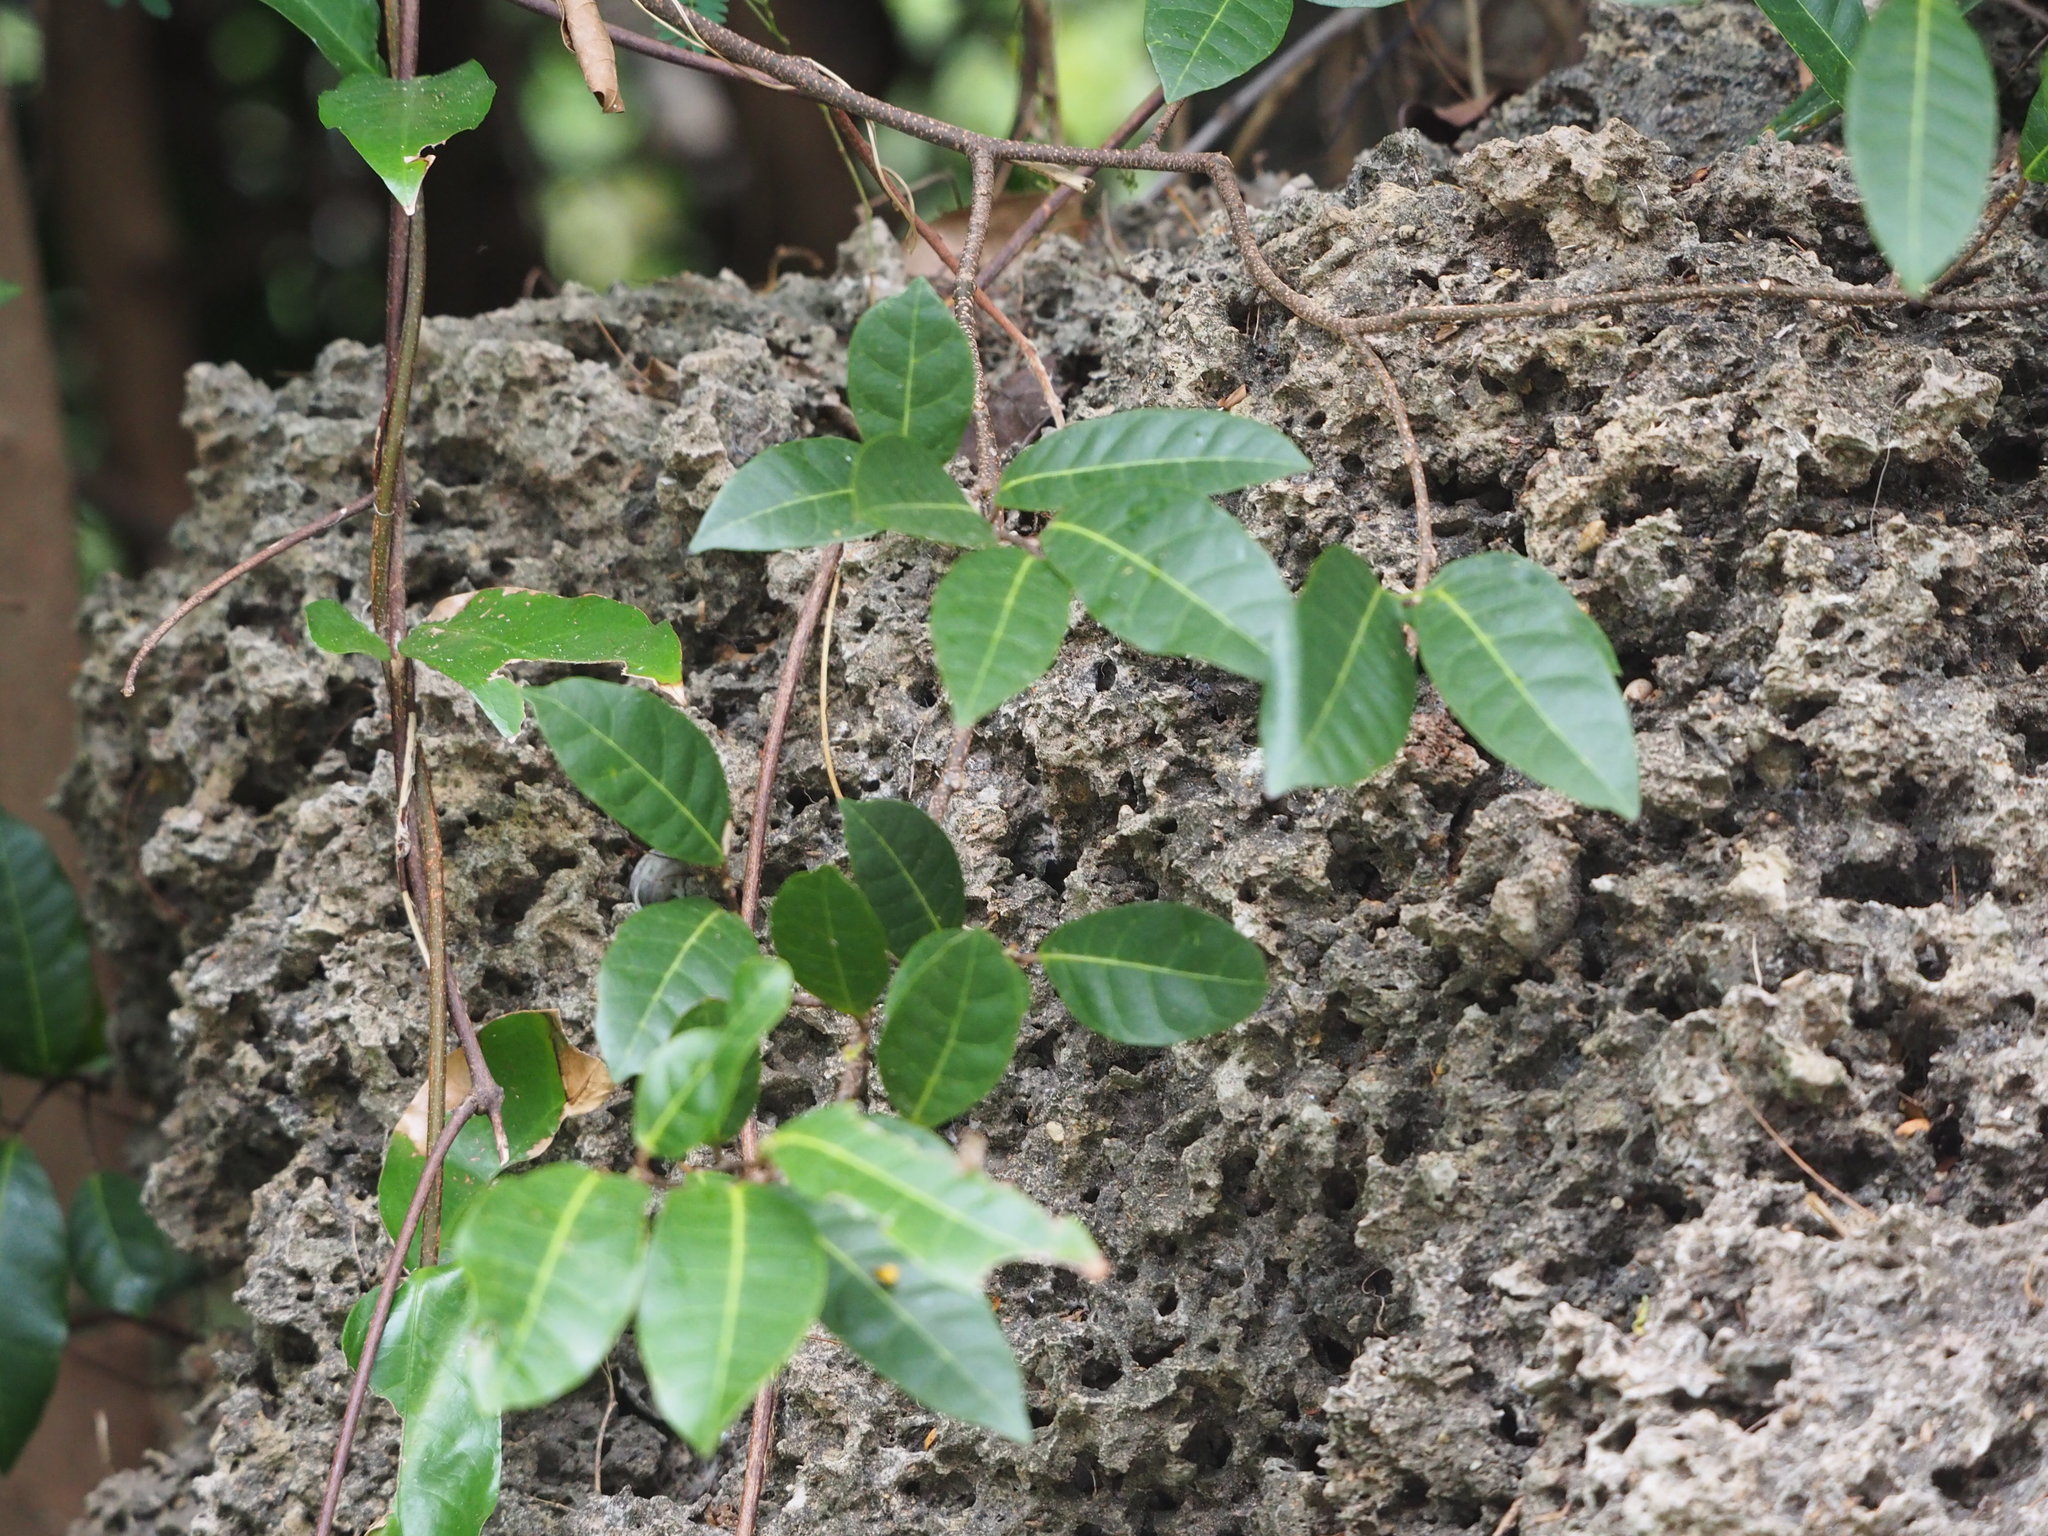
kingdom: Plantae
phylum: Tracheophyta
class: Magnoliopsida
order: Rosales
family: Moraceae
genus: Malaisia
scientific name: Malaisia scandens
